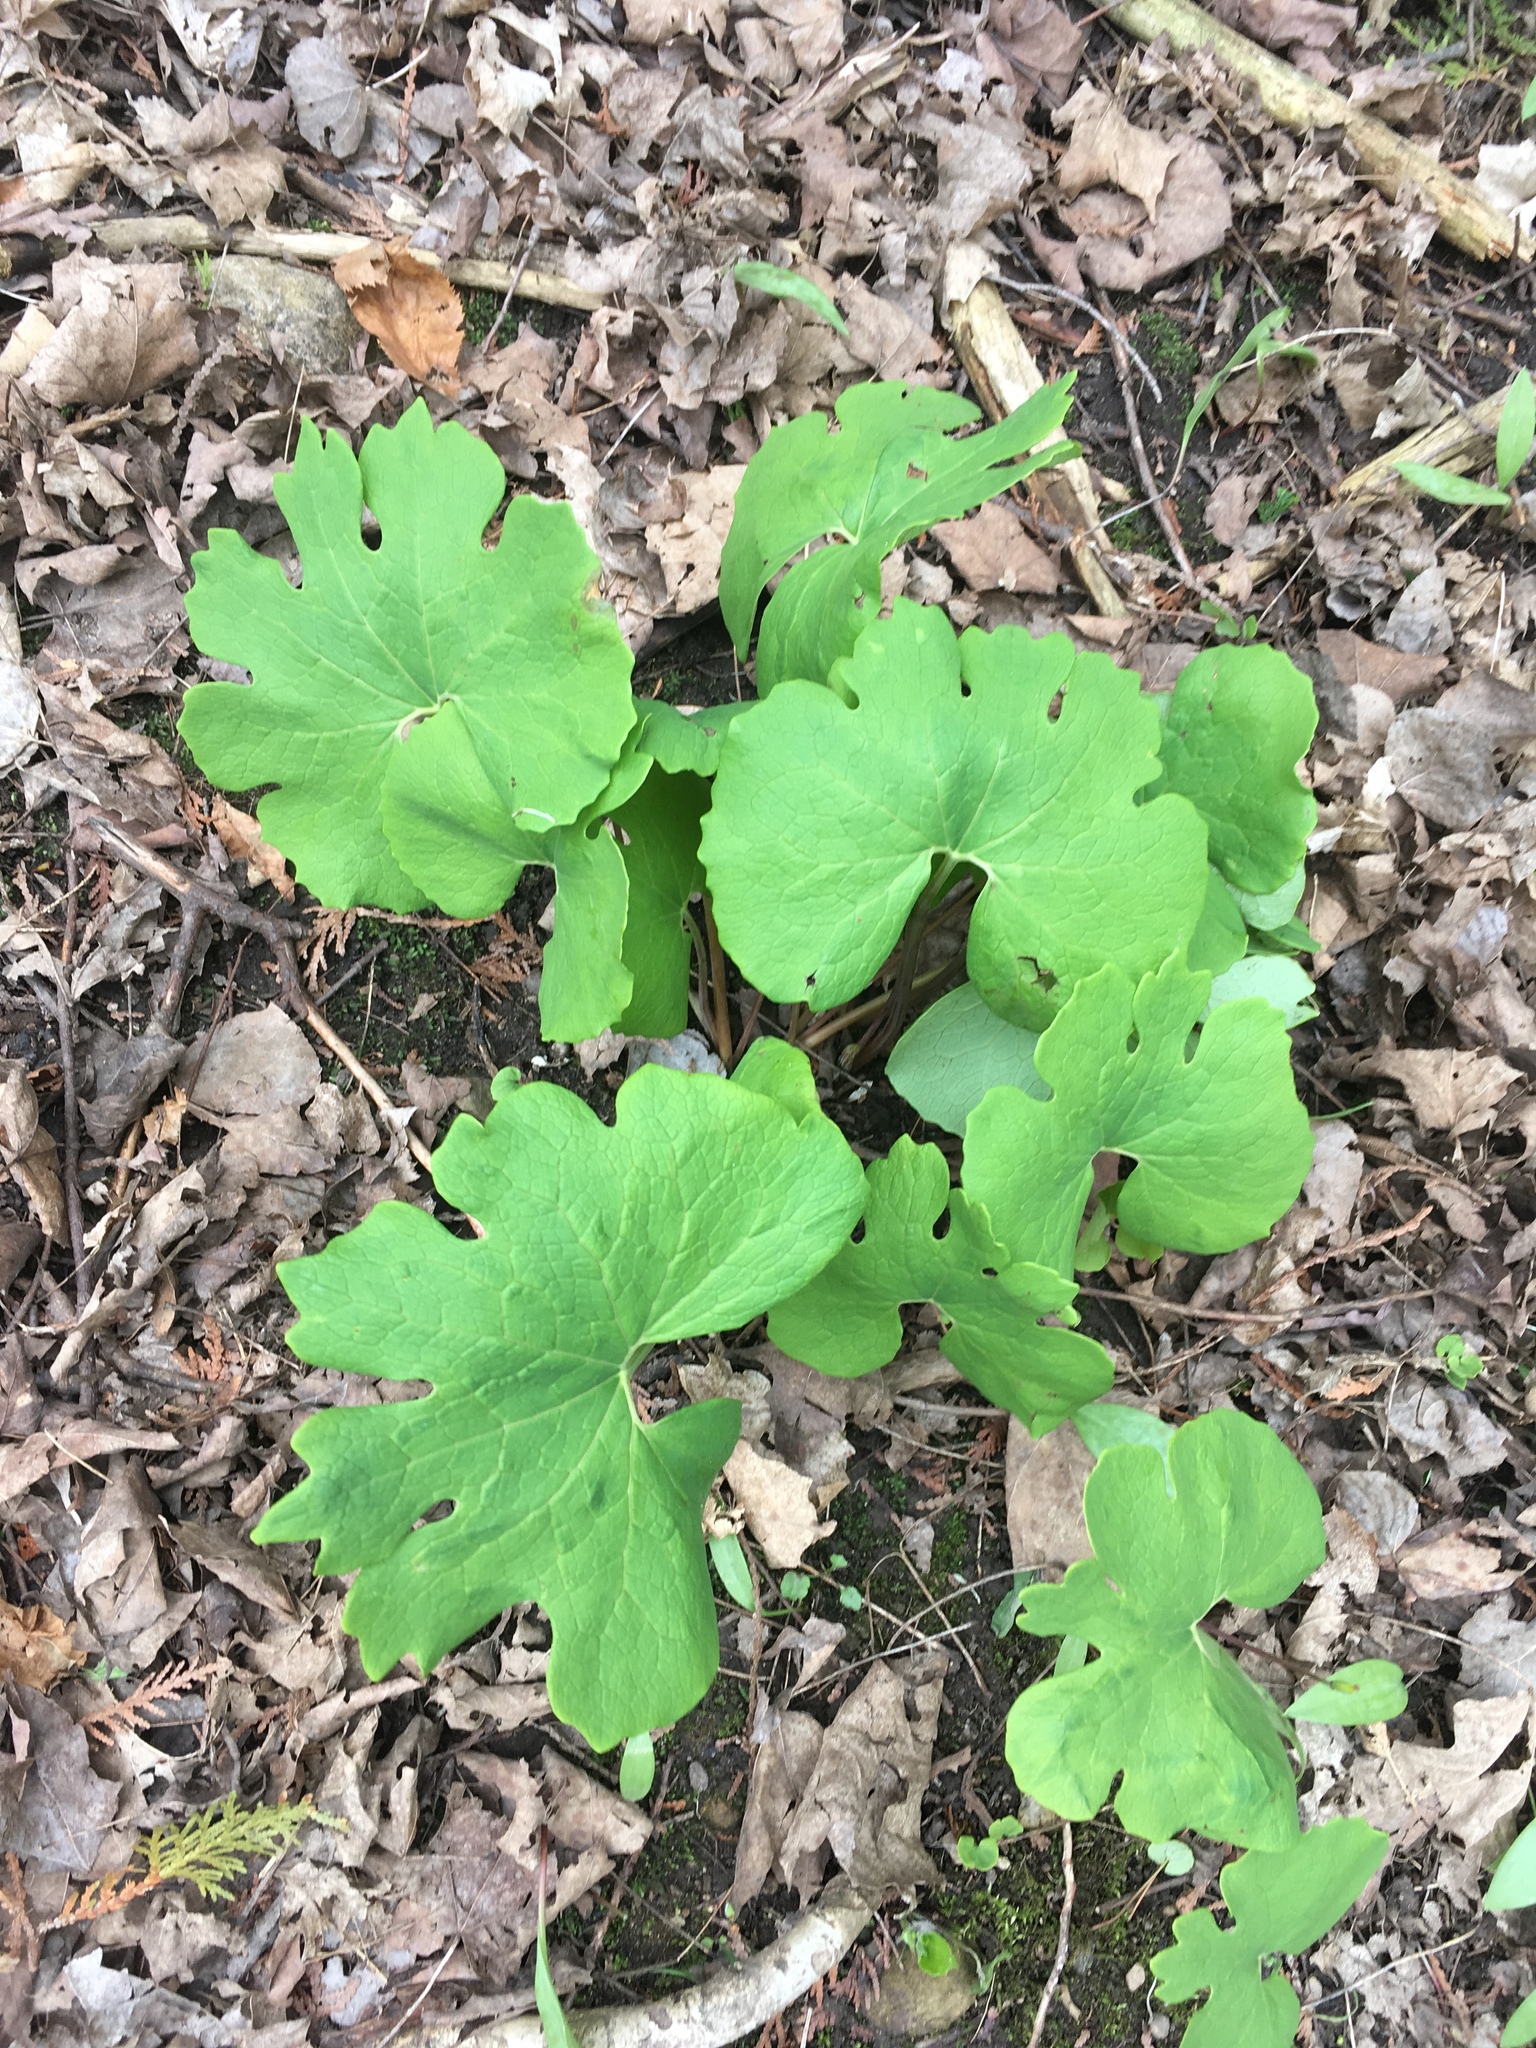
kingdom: Plantae
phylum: Tracheophyta
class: Magnoliopsida
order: Ranunculales
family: Papaveraceae
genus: Sanguinaria
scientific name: Sanguinaria canadensis
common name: Bloodroot
